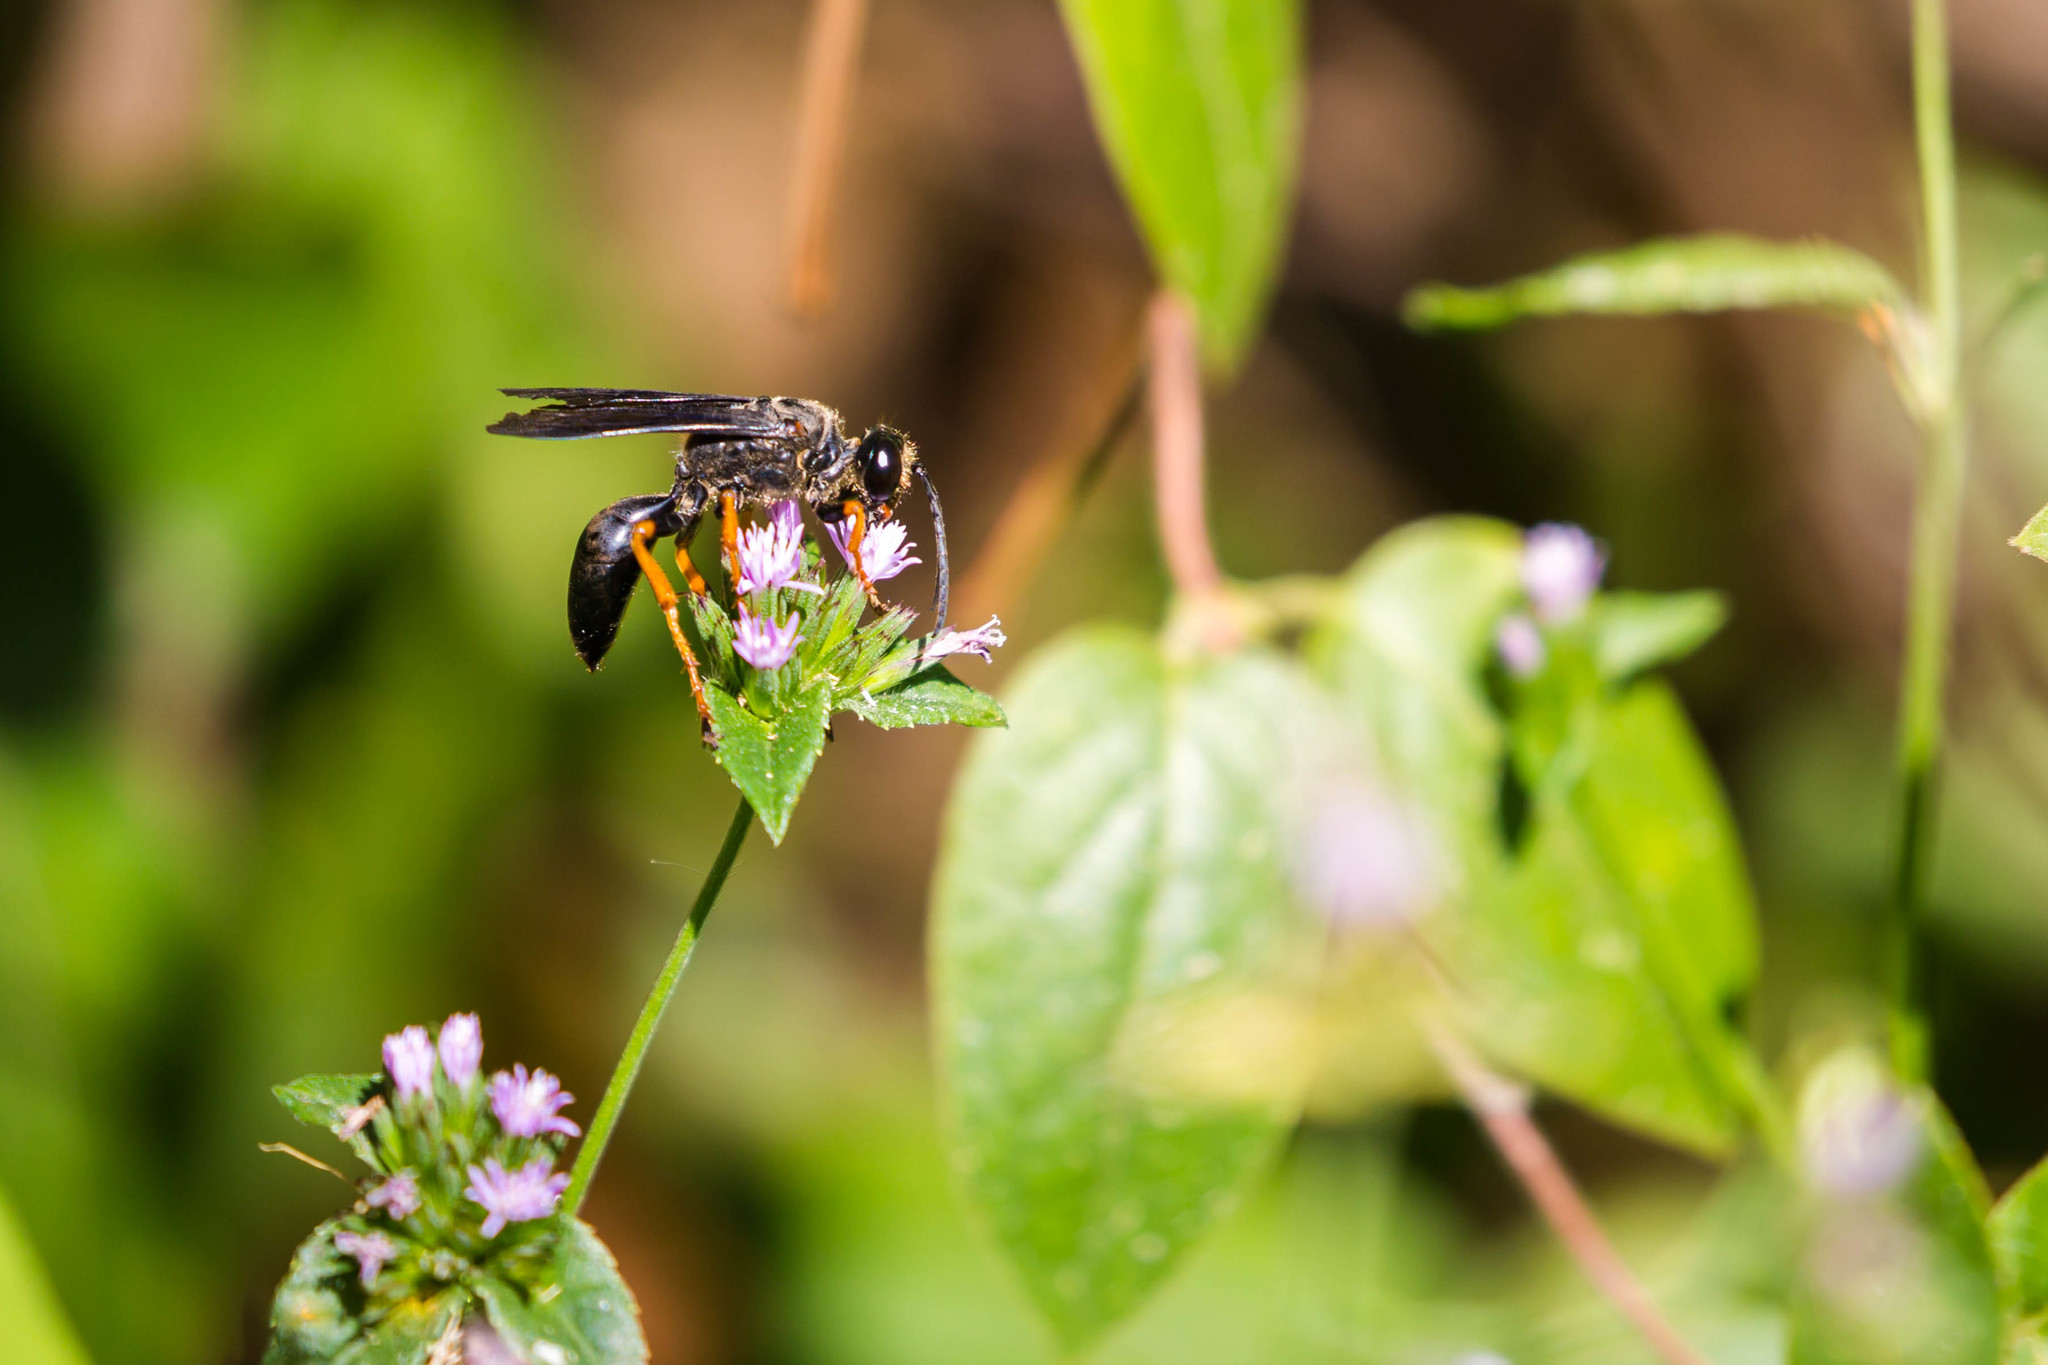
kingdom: Animalia
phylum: Arthropoda
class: Insecta
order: Hymenoptera
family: Sphecidae
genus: Sphex
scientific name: Sphex nudus
